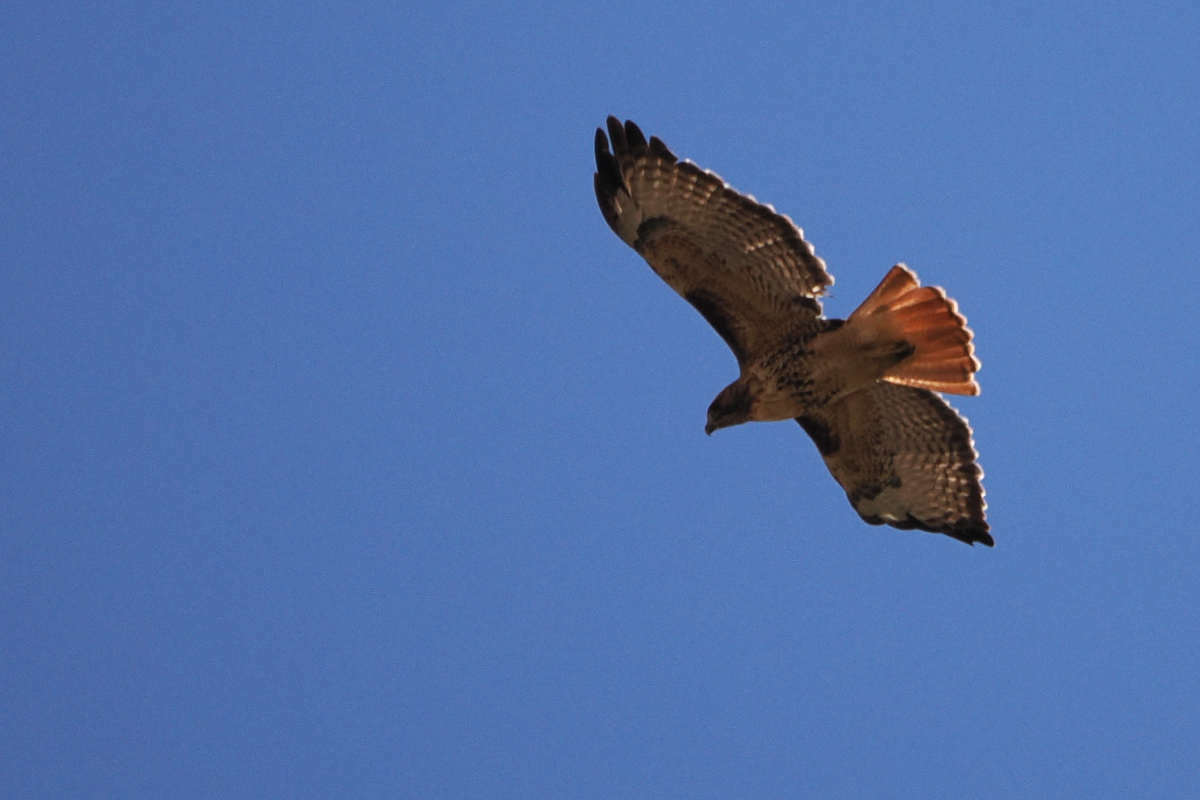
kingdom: Animalia
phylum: Chordata
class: Aves
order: Accipitriformes
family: Accipitridae
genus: Buteo
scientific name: Buteo jamaicensis
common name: Red-tailed hawk
